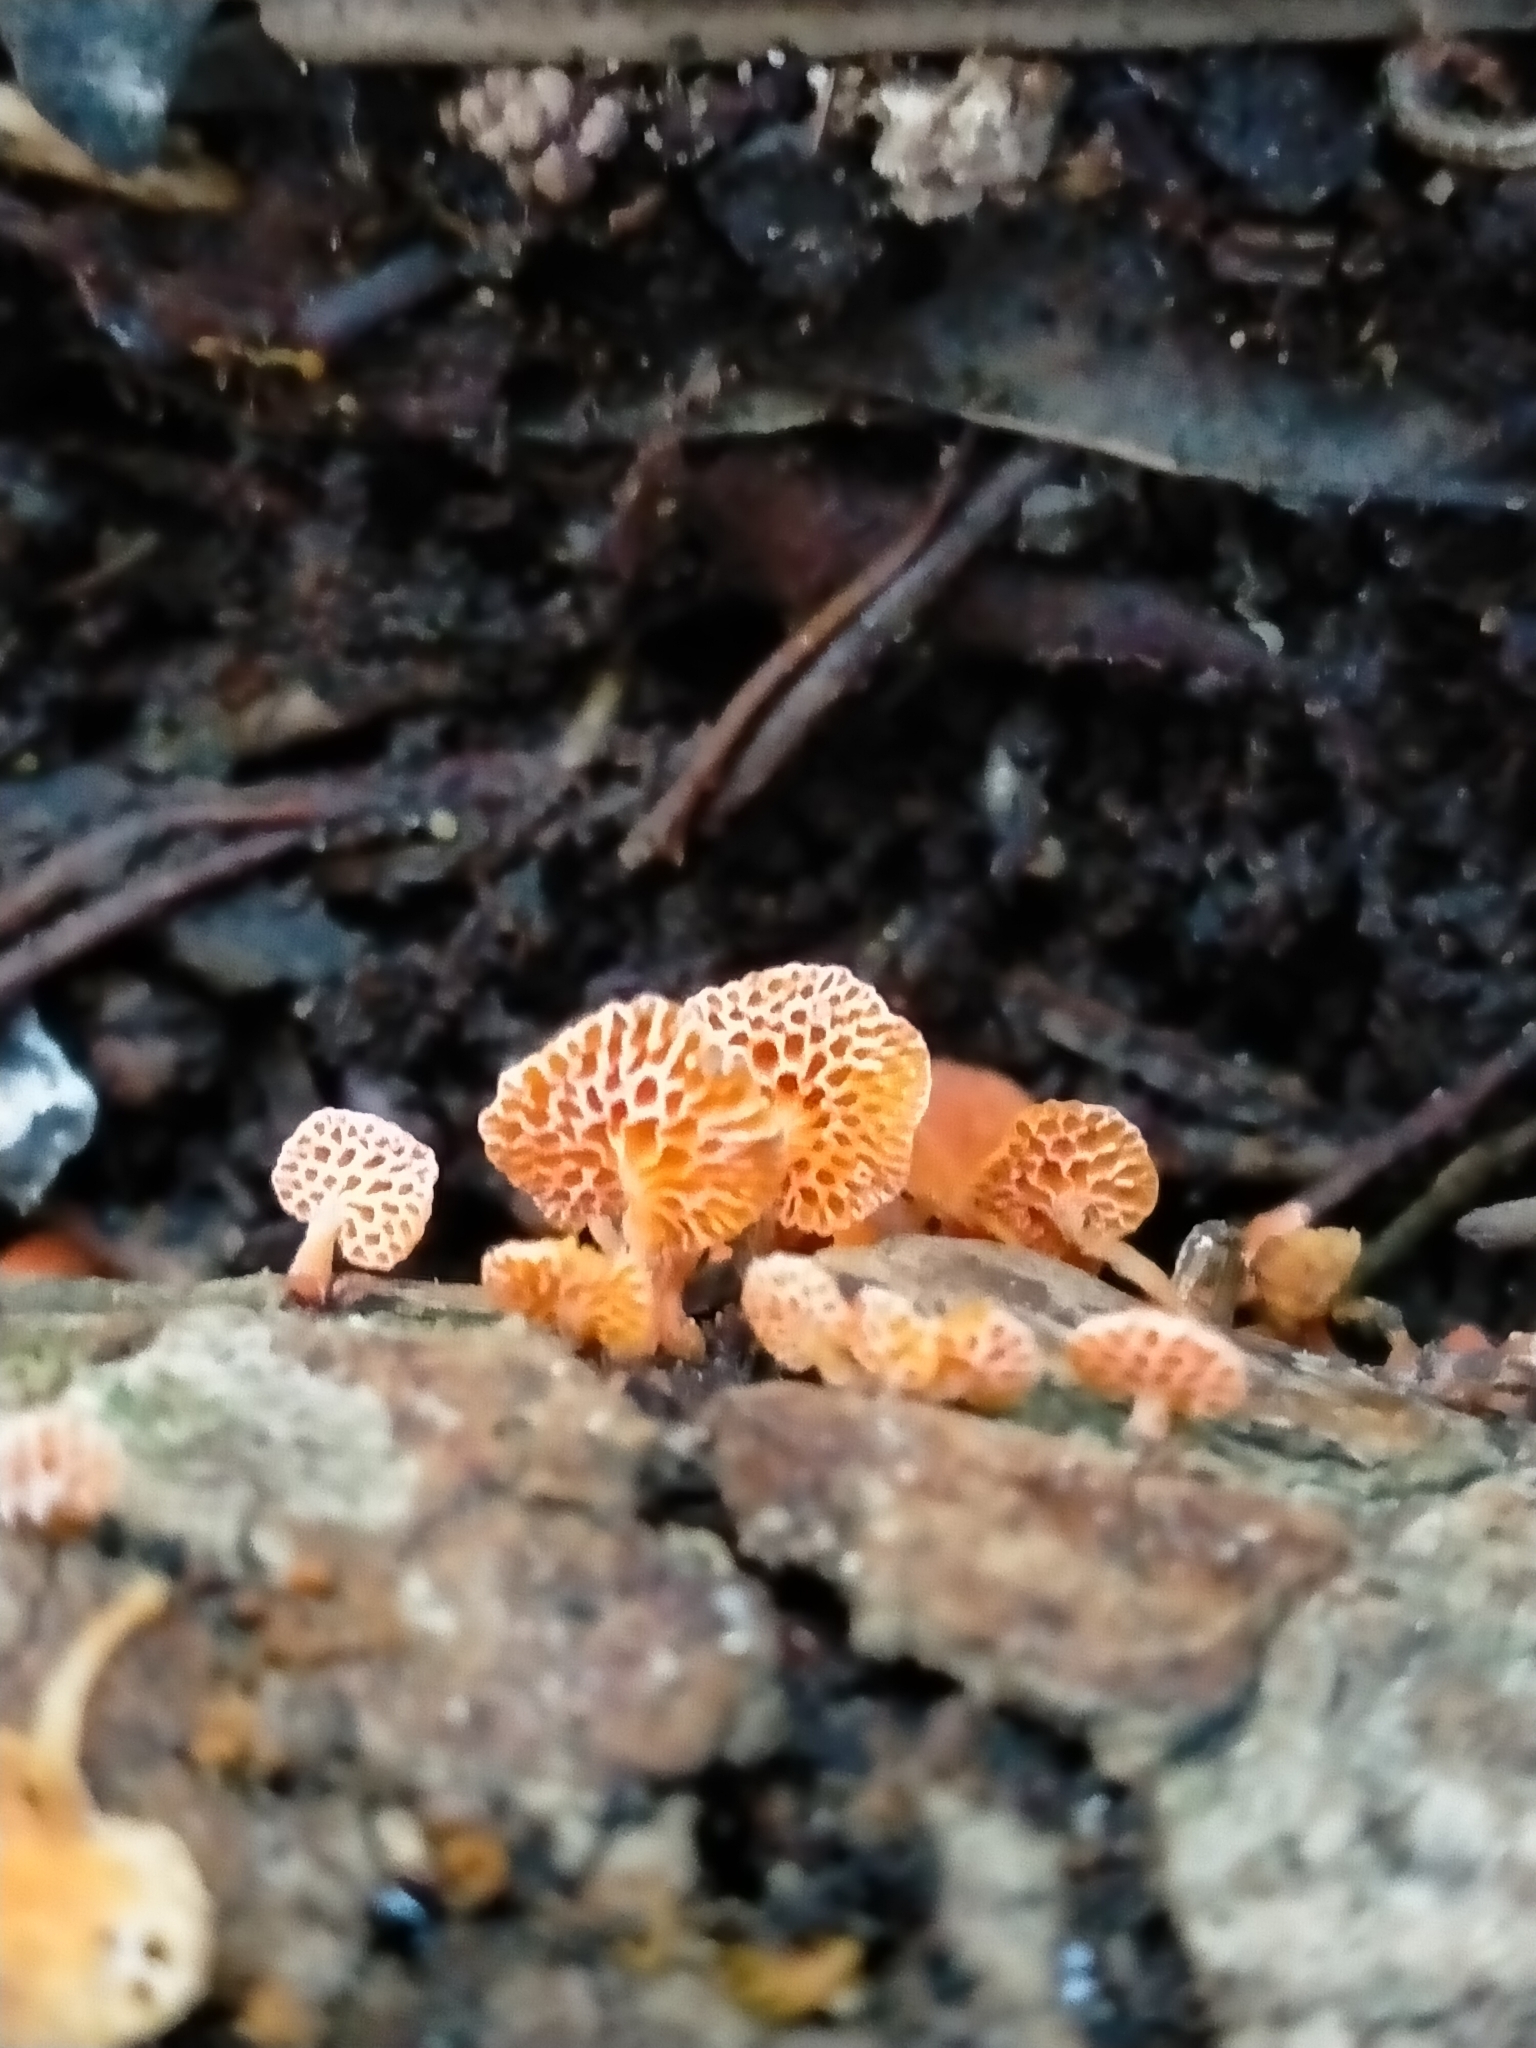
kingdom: Fungi
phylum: Basidiomycota
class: Agaricomycetes
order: Agaricales
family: Mycenaceae
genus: Favolaschia
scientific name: Favolaschia claudopus
